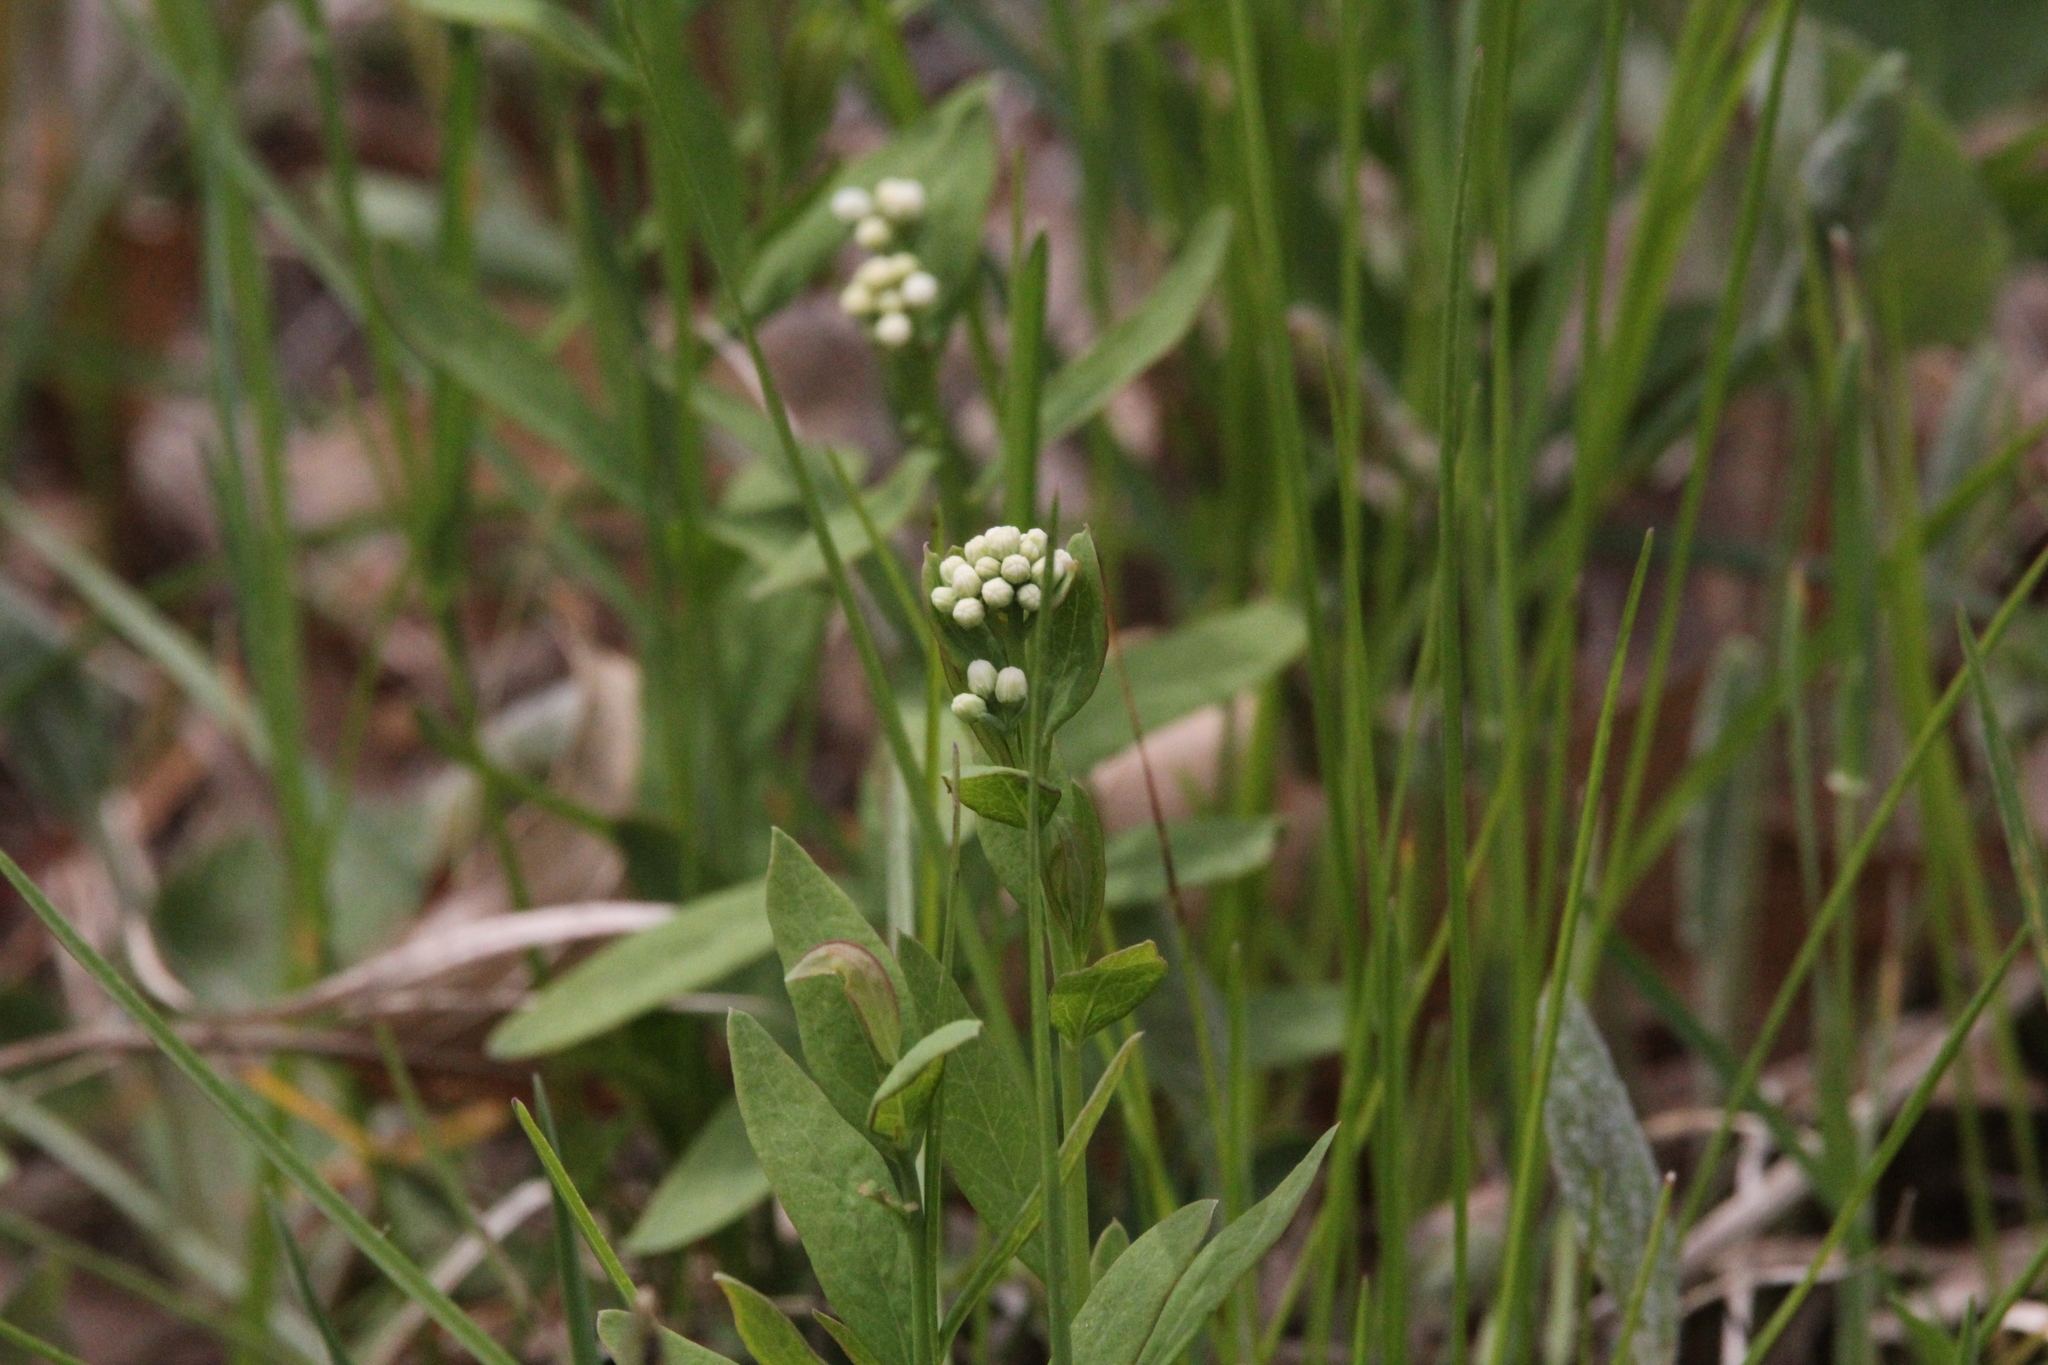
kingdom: Plantae
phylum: Tracheophyta
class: Magnoliopsida
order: Santalales
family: Comandraceae
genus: Comandra
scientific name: Comandra umbellata
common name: Bastard toadflax
